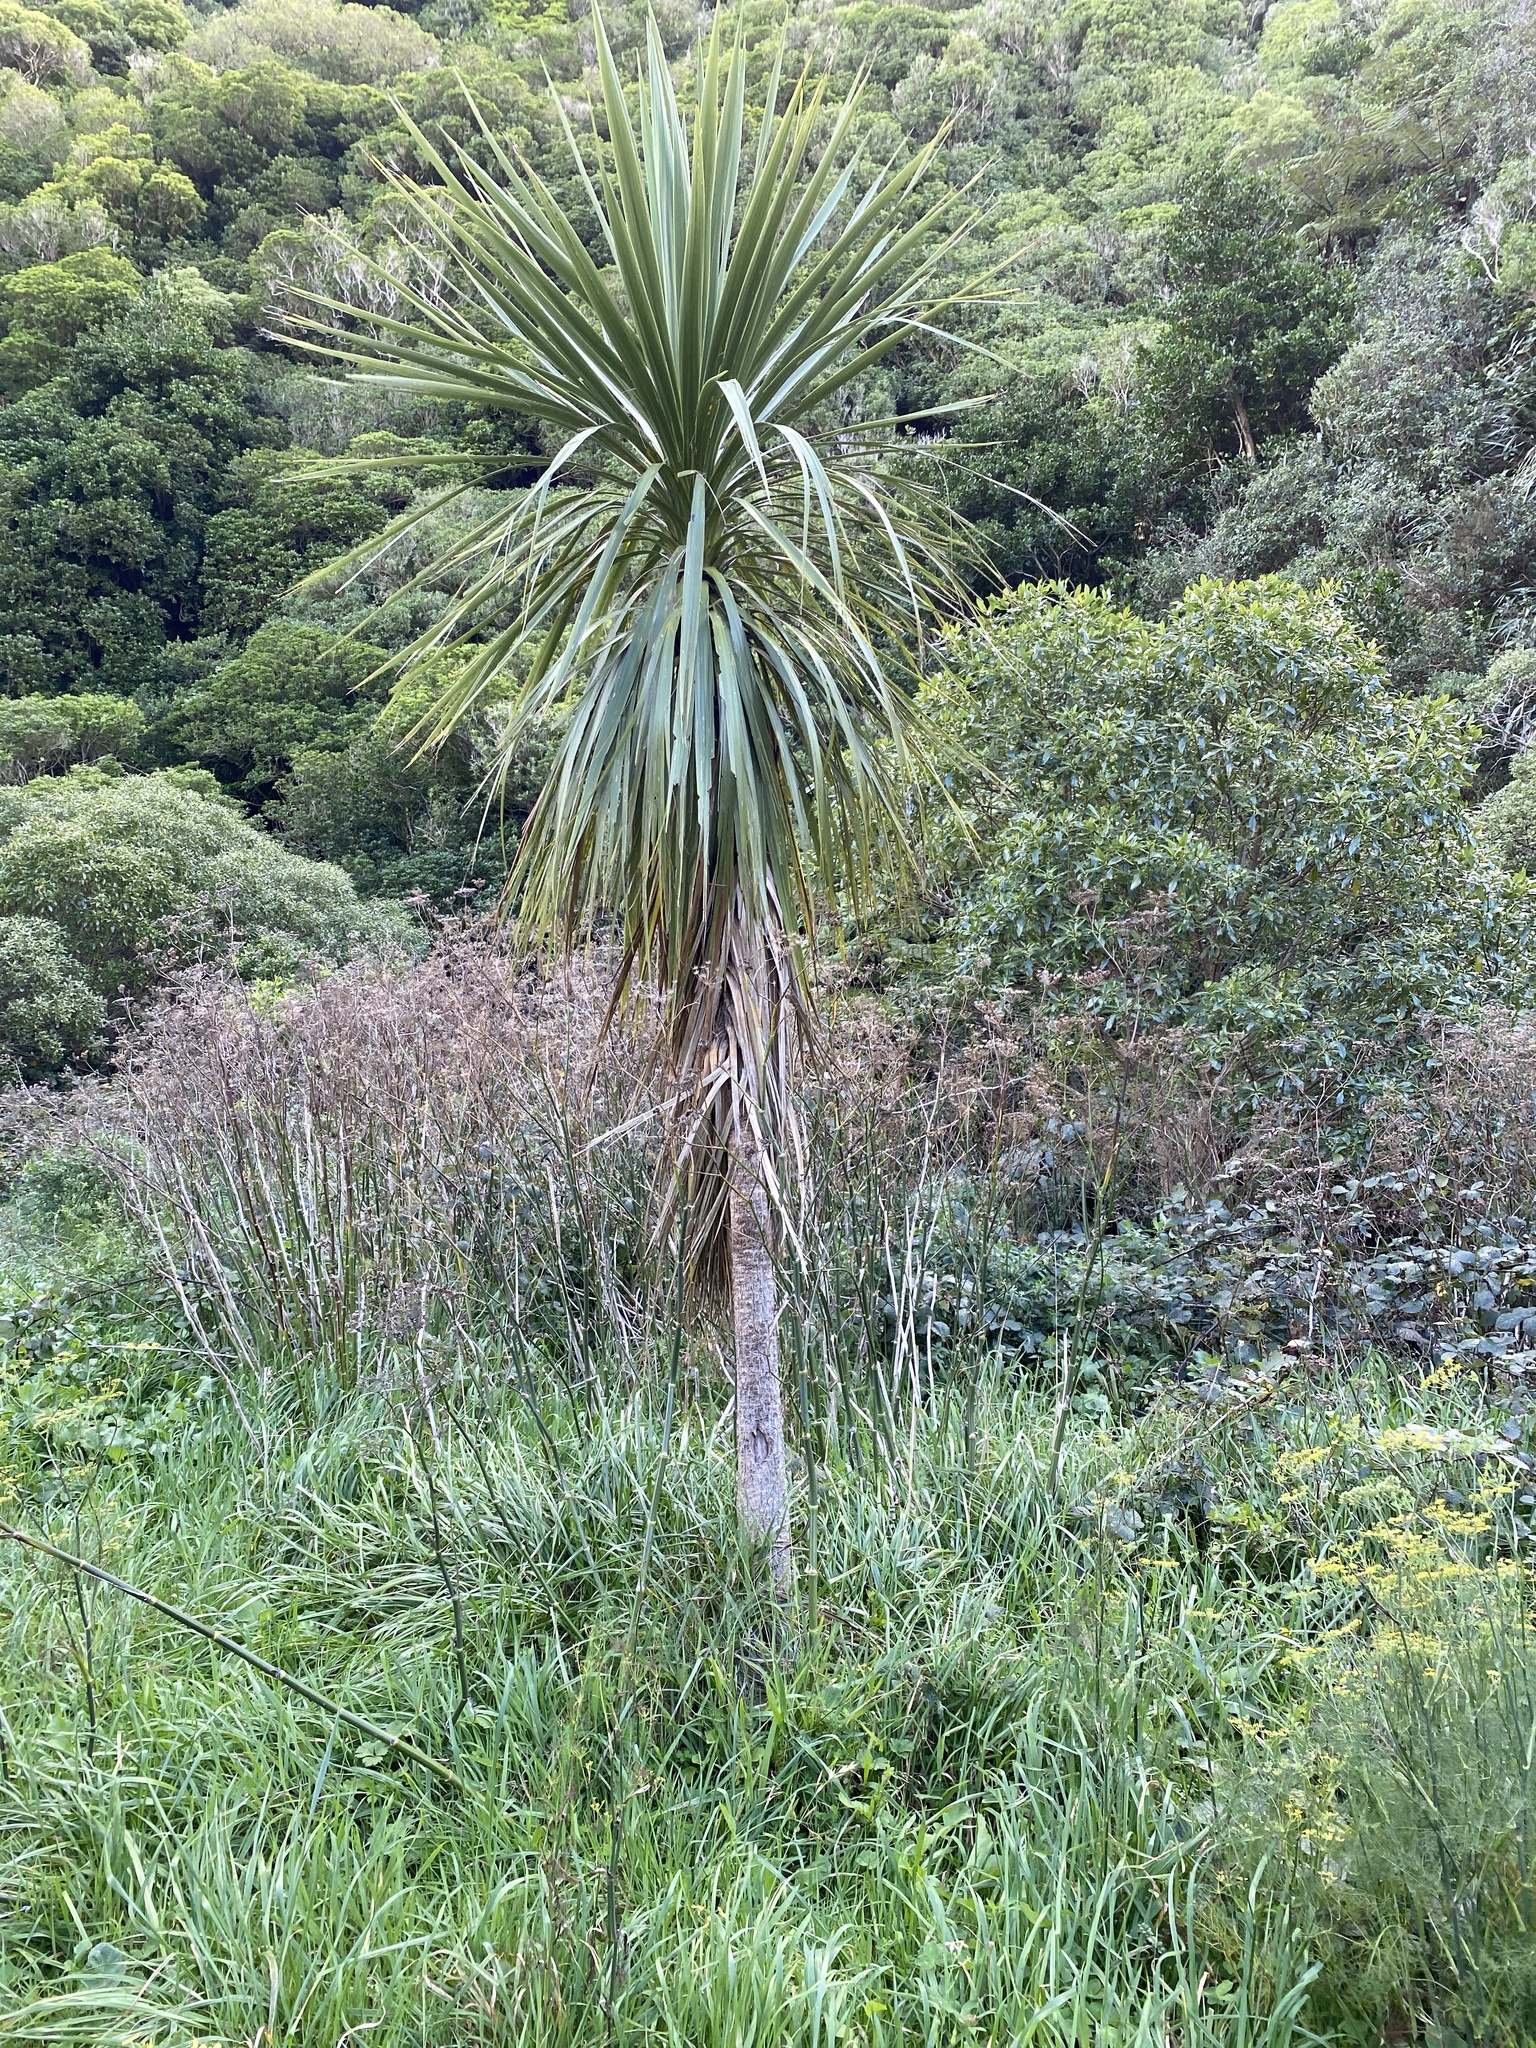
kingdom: Plantae
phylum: Tracheophyta
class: Liliopsida
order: Asparagales
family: Asparagaceae
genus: Cordyline
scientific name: Cordyline australis
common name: Cabbage-palm
